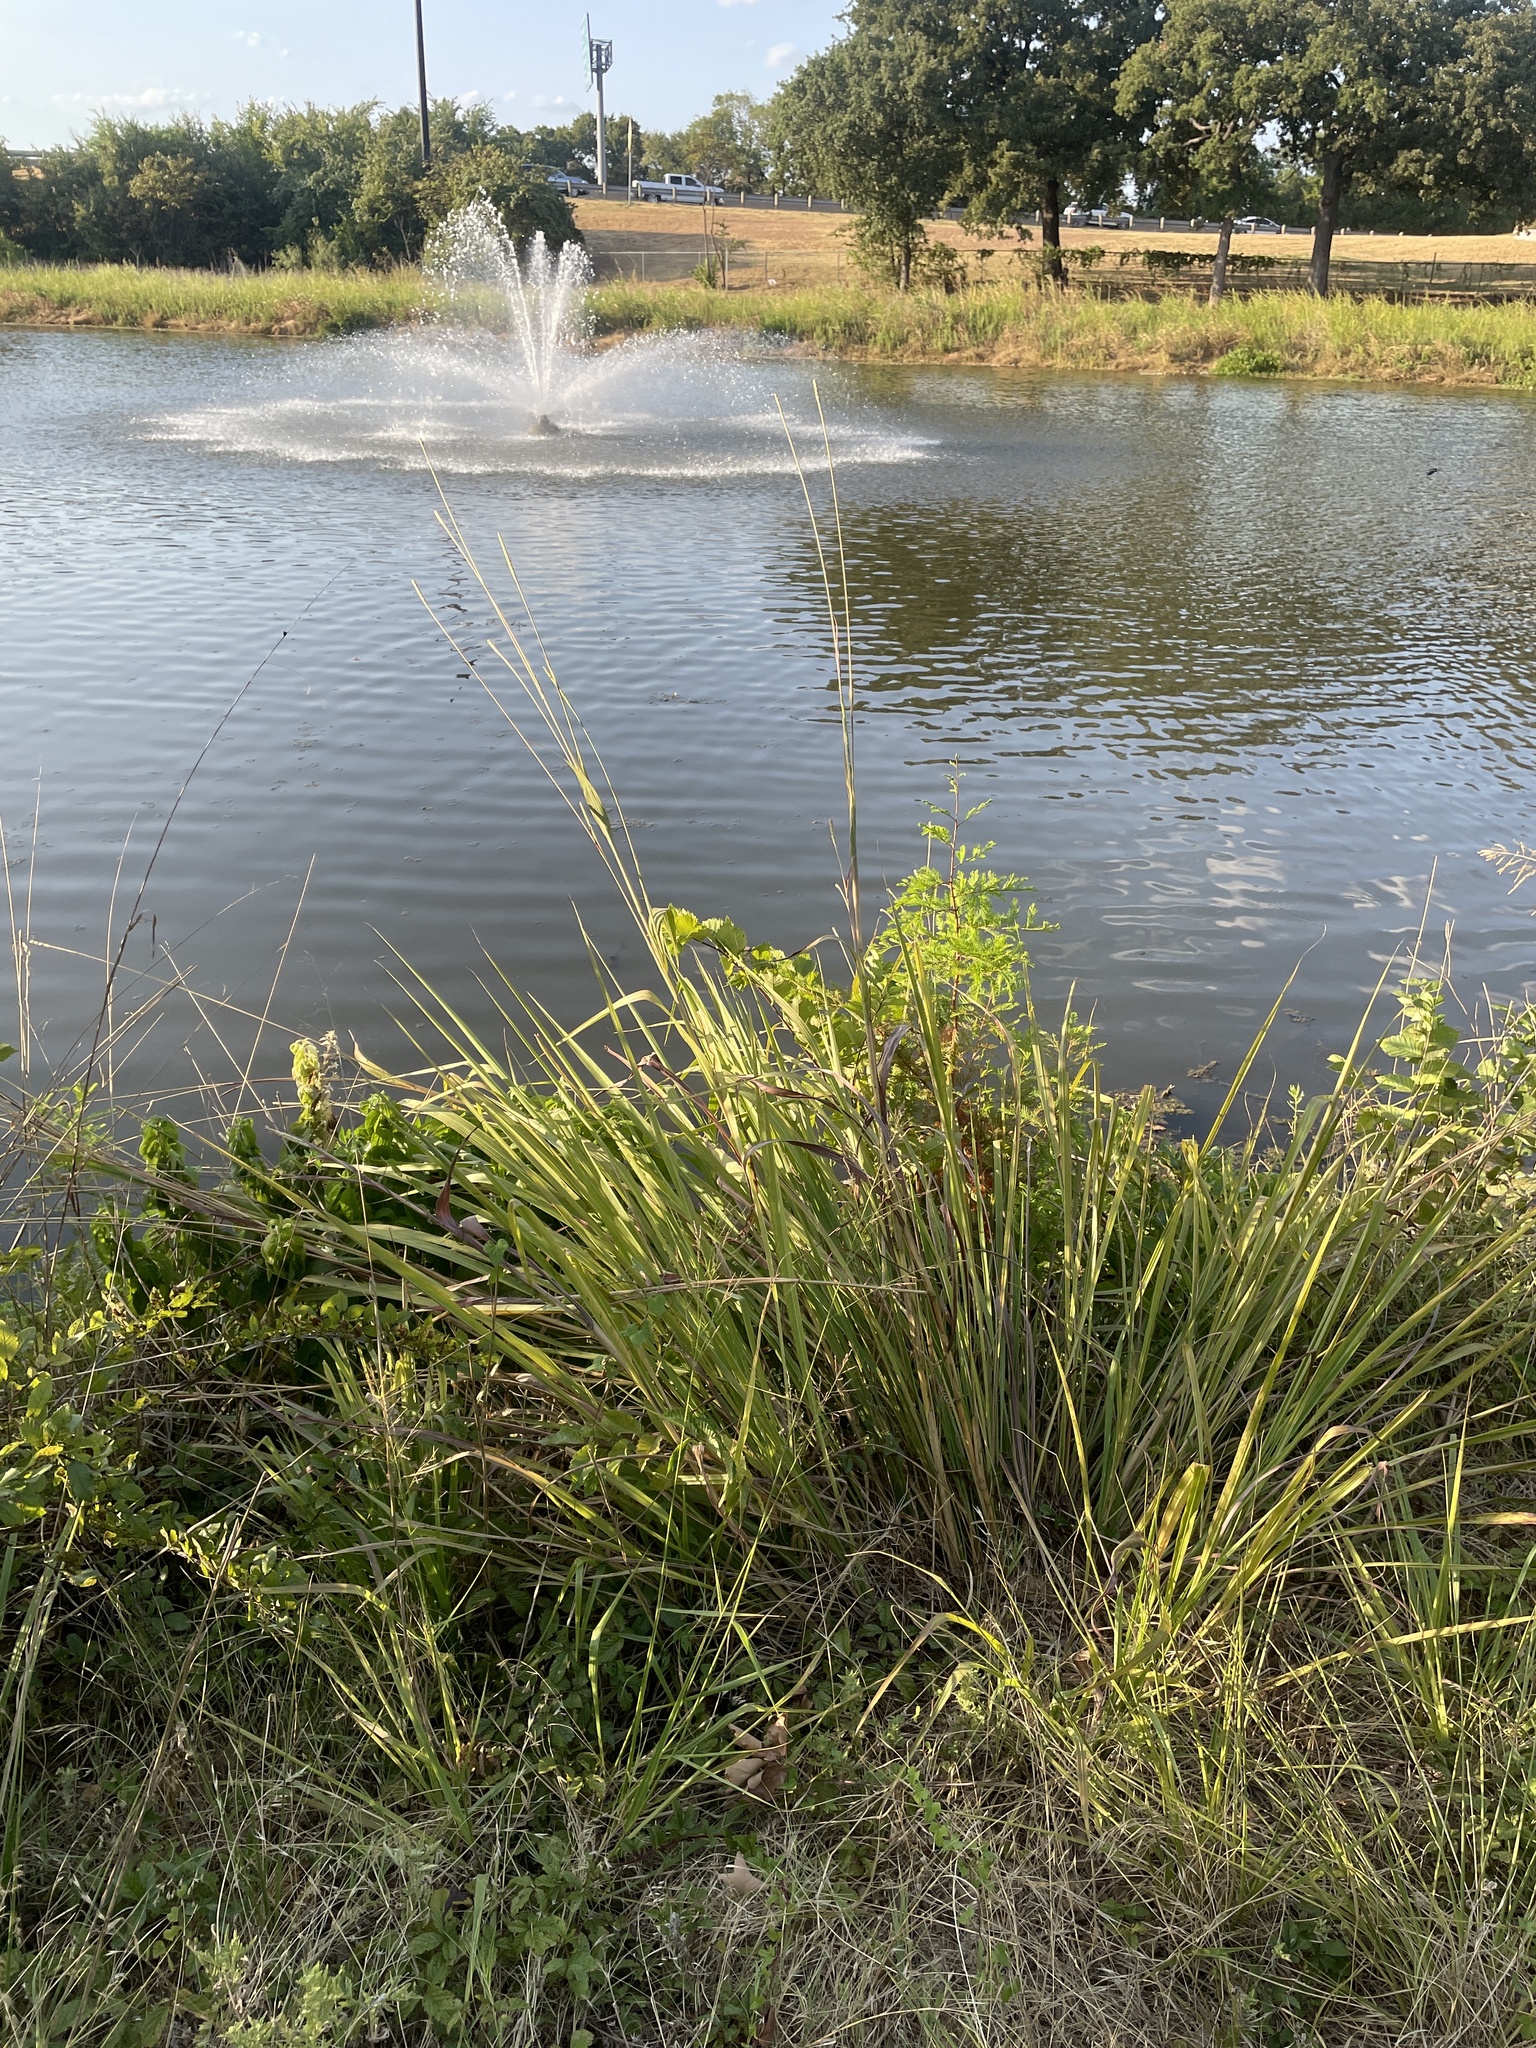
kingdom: Plantae
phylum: Tracheophyta
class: Liliopsida
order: Poales
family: Poaceae
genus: Tripsacum
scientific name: Tripsacum dactyloides
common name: Buffalo-grass
